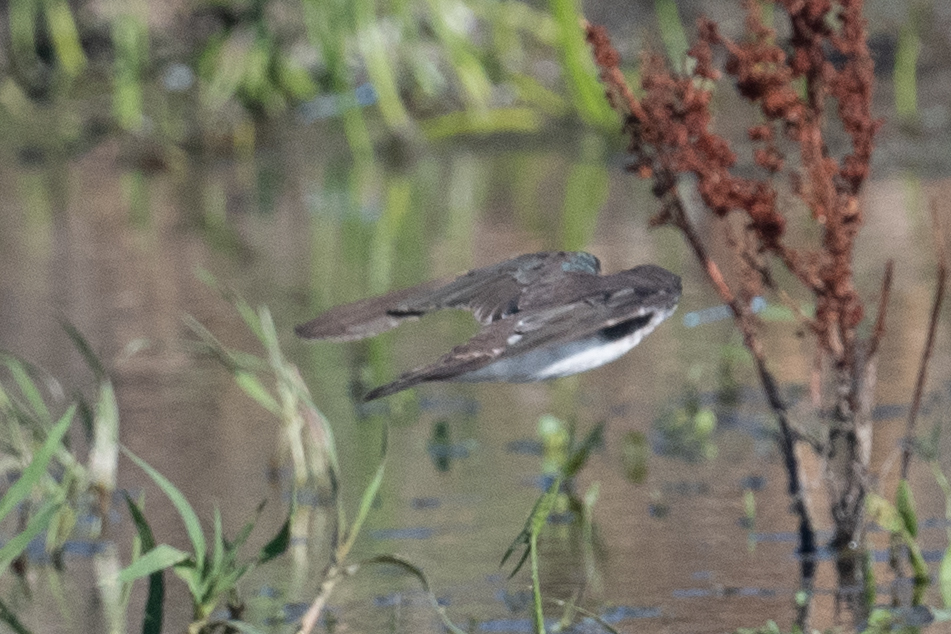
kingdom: Animalia
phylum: Chordata
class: Aves
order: Passeriformes
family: Hirundinidae
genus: Tachycineta
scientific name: Tachycineta bicolor
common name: Tree swallow
